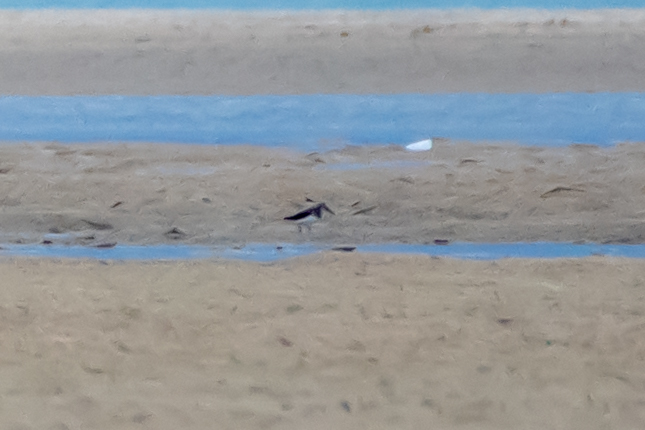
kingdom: Animalia
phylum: Chordata
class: Aves
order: Charadriiformes
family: Scolopacidae
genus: Calidris
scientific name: Calidris alpina
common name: Dunlin
